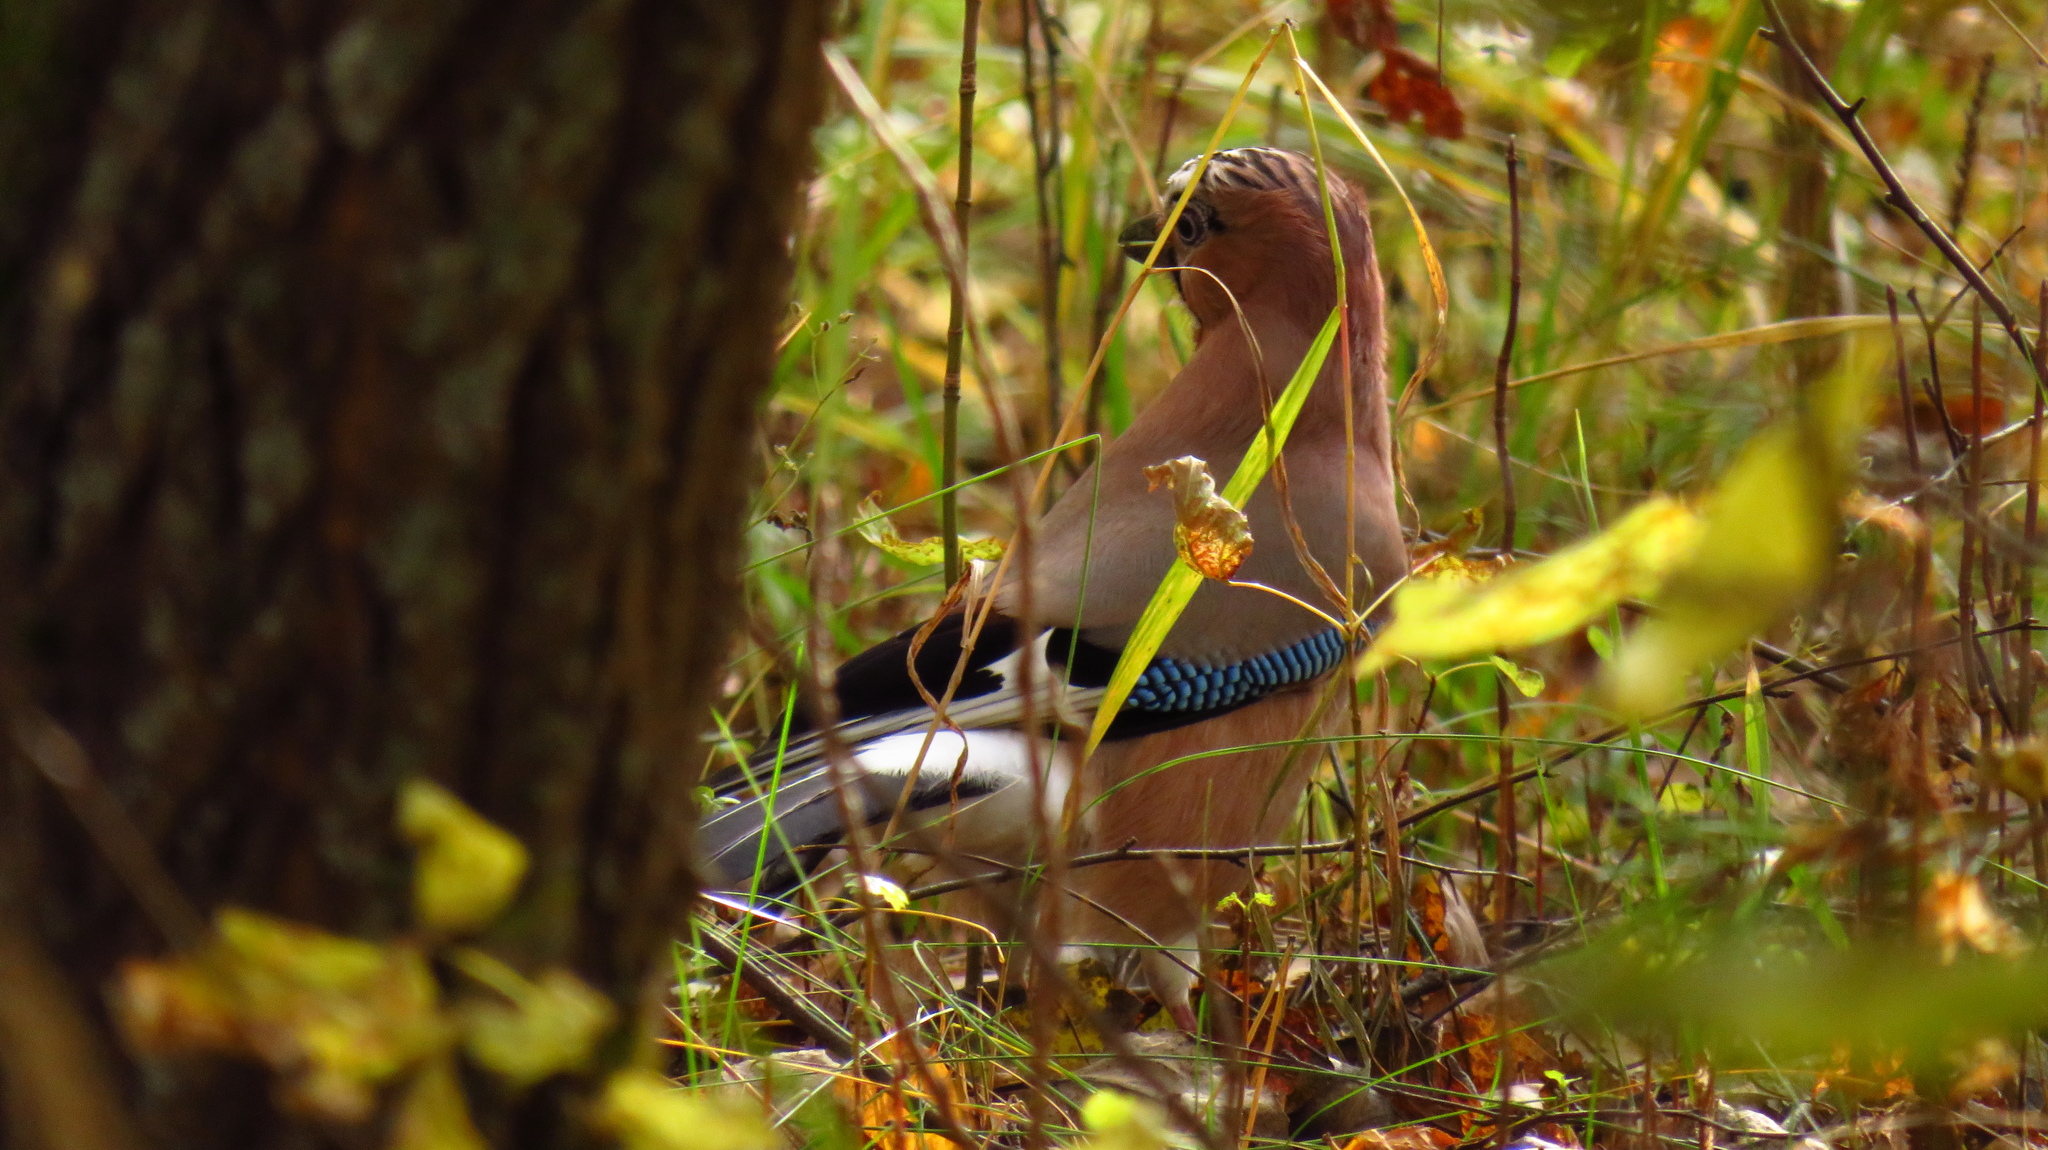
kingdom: Animalia
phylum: Chordata
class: Aves
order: Passeriformes
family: Corvidae
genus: Garrulus
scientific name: Garrulus glandarius
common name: Eurasian jay
